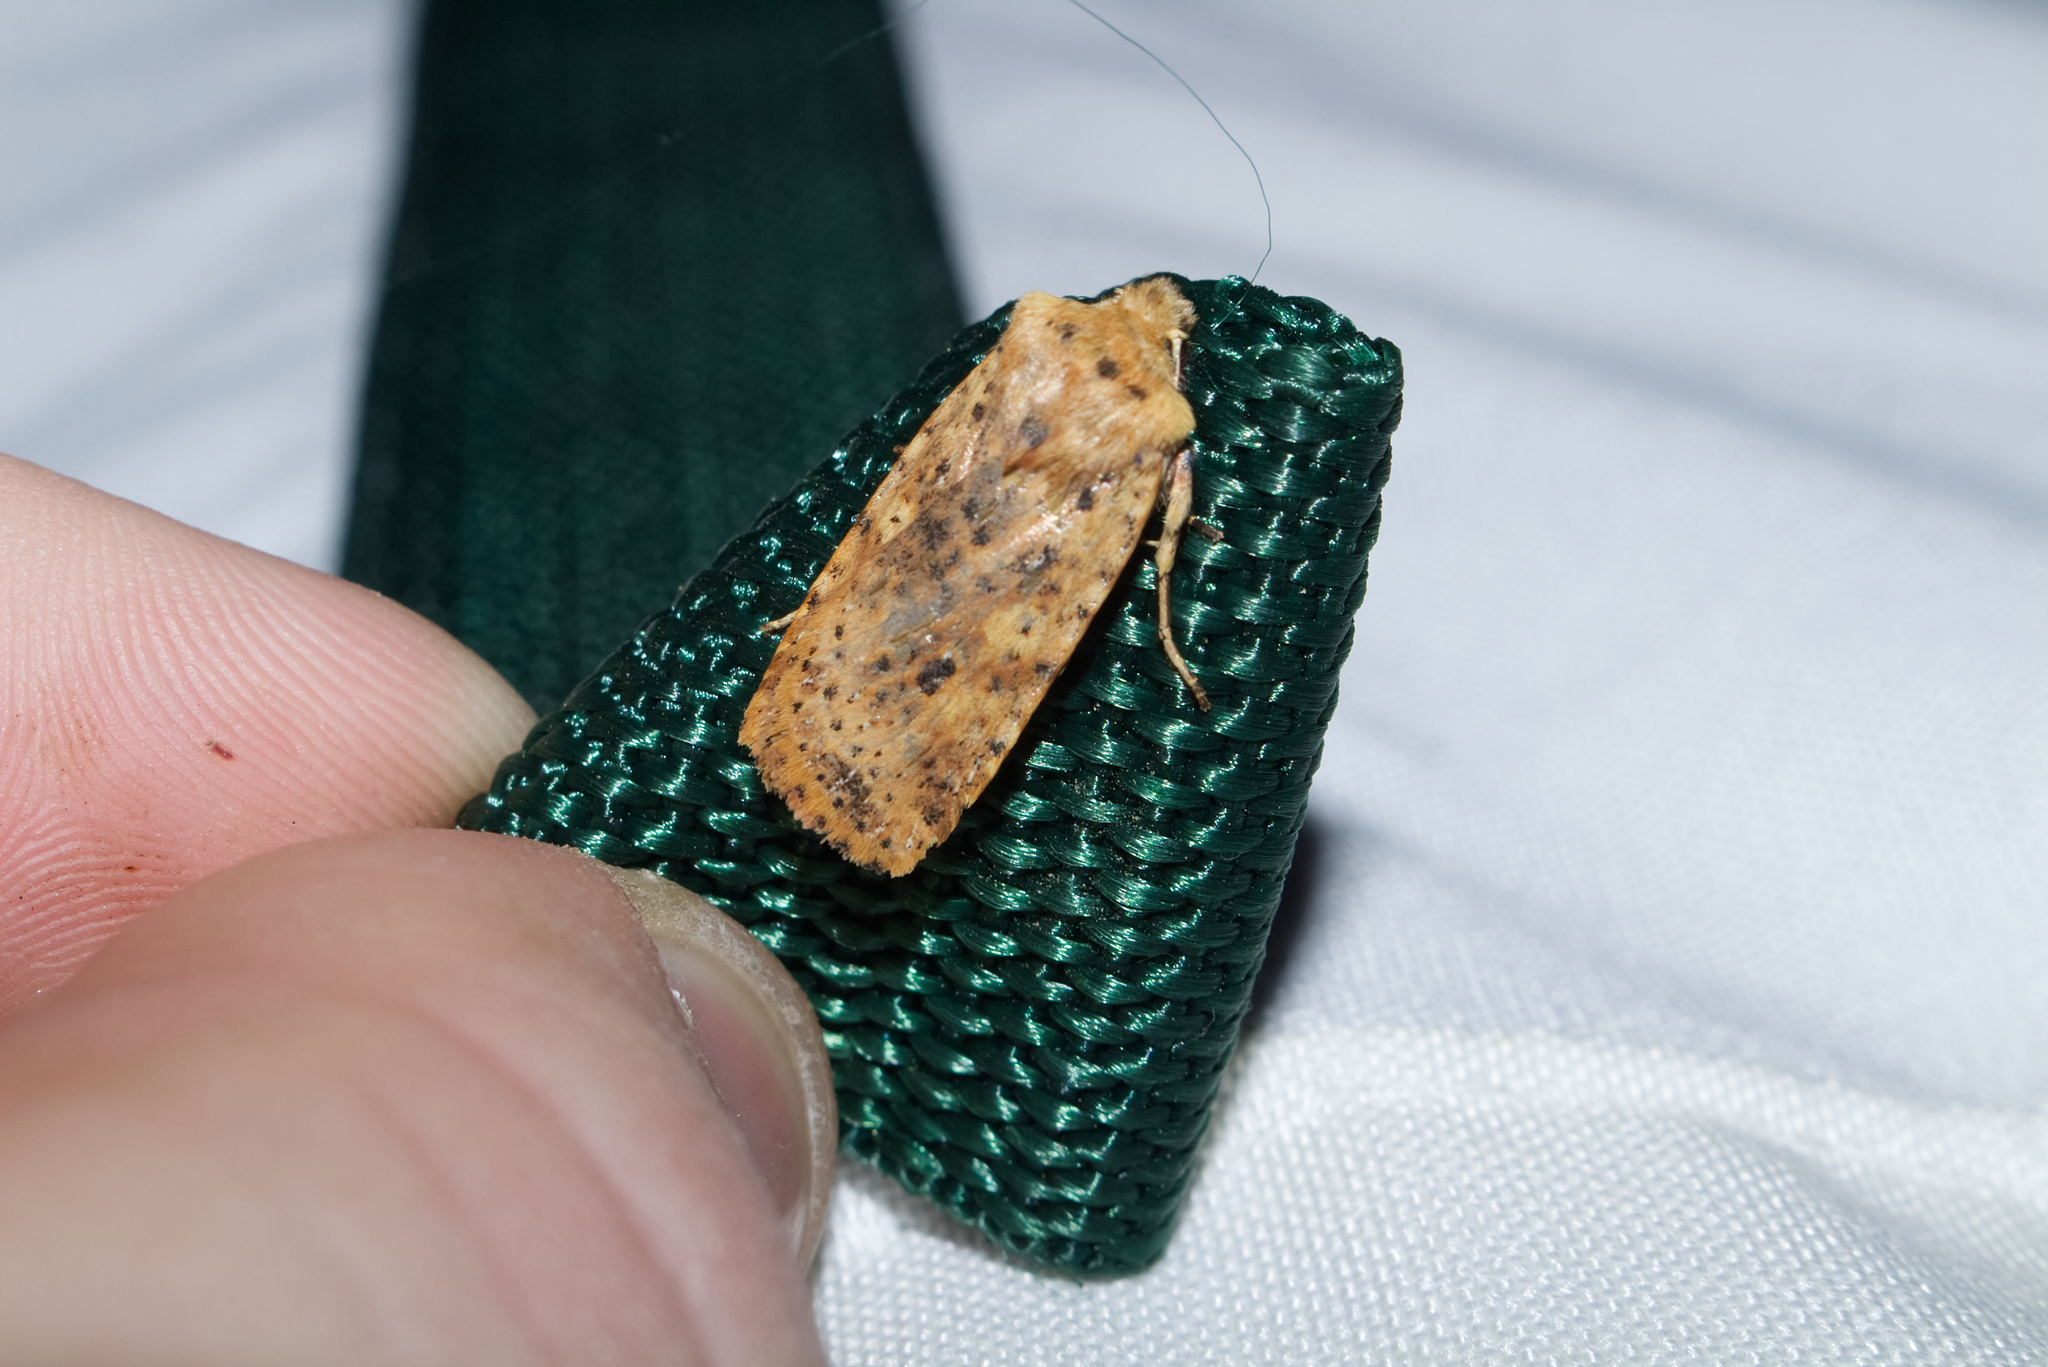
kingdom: Animalia
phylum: Arthropoda
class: Insecta
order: Lepidoptera
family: Noctuidae
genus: Conistra
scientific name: Conistra rubiginea
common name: Dotted chestnut
